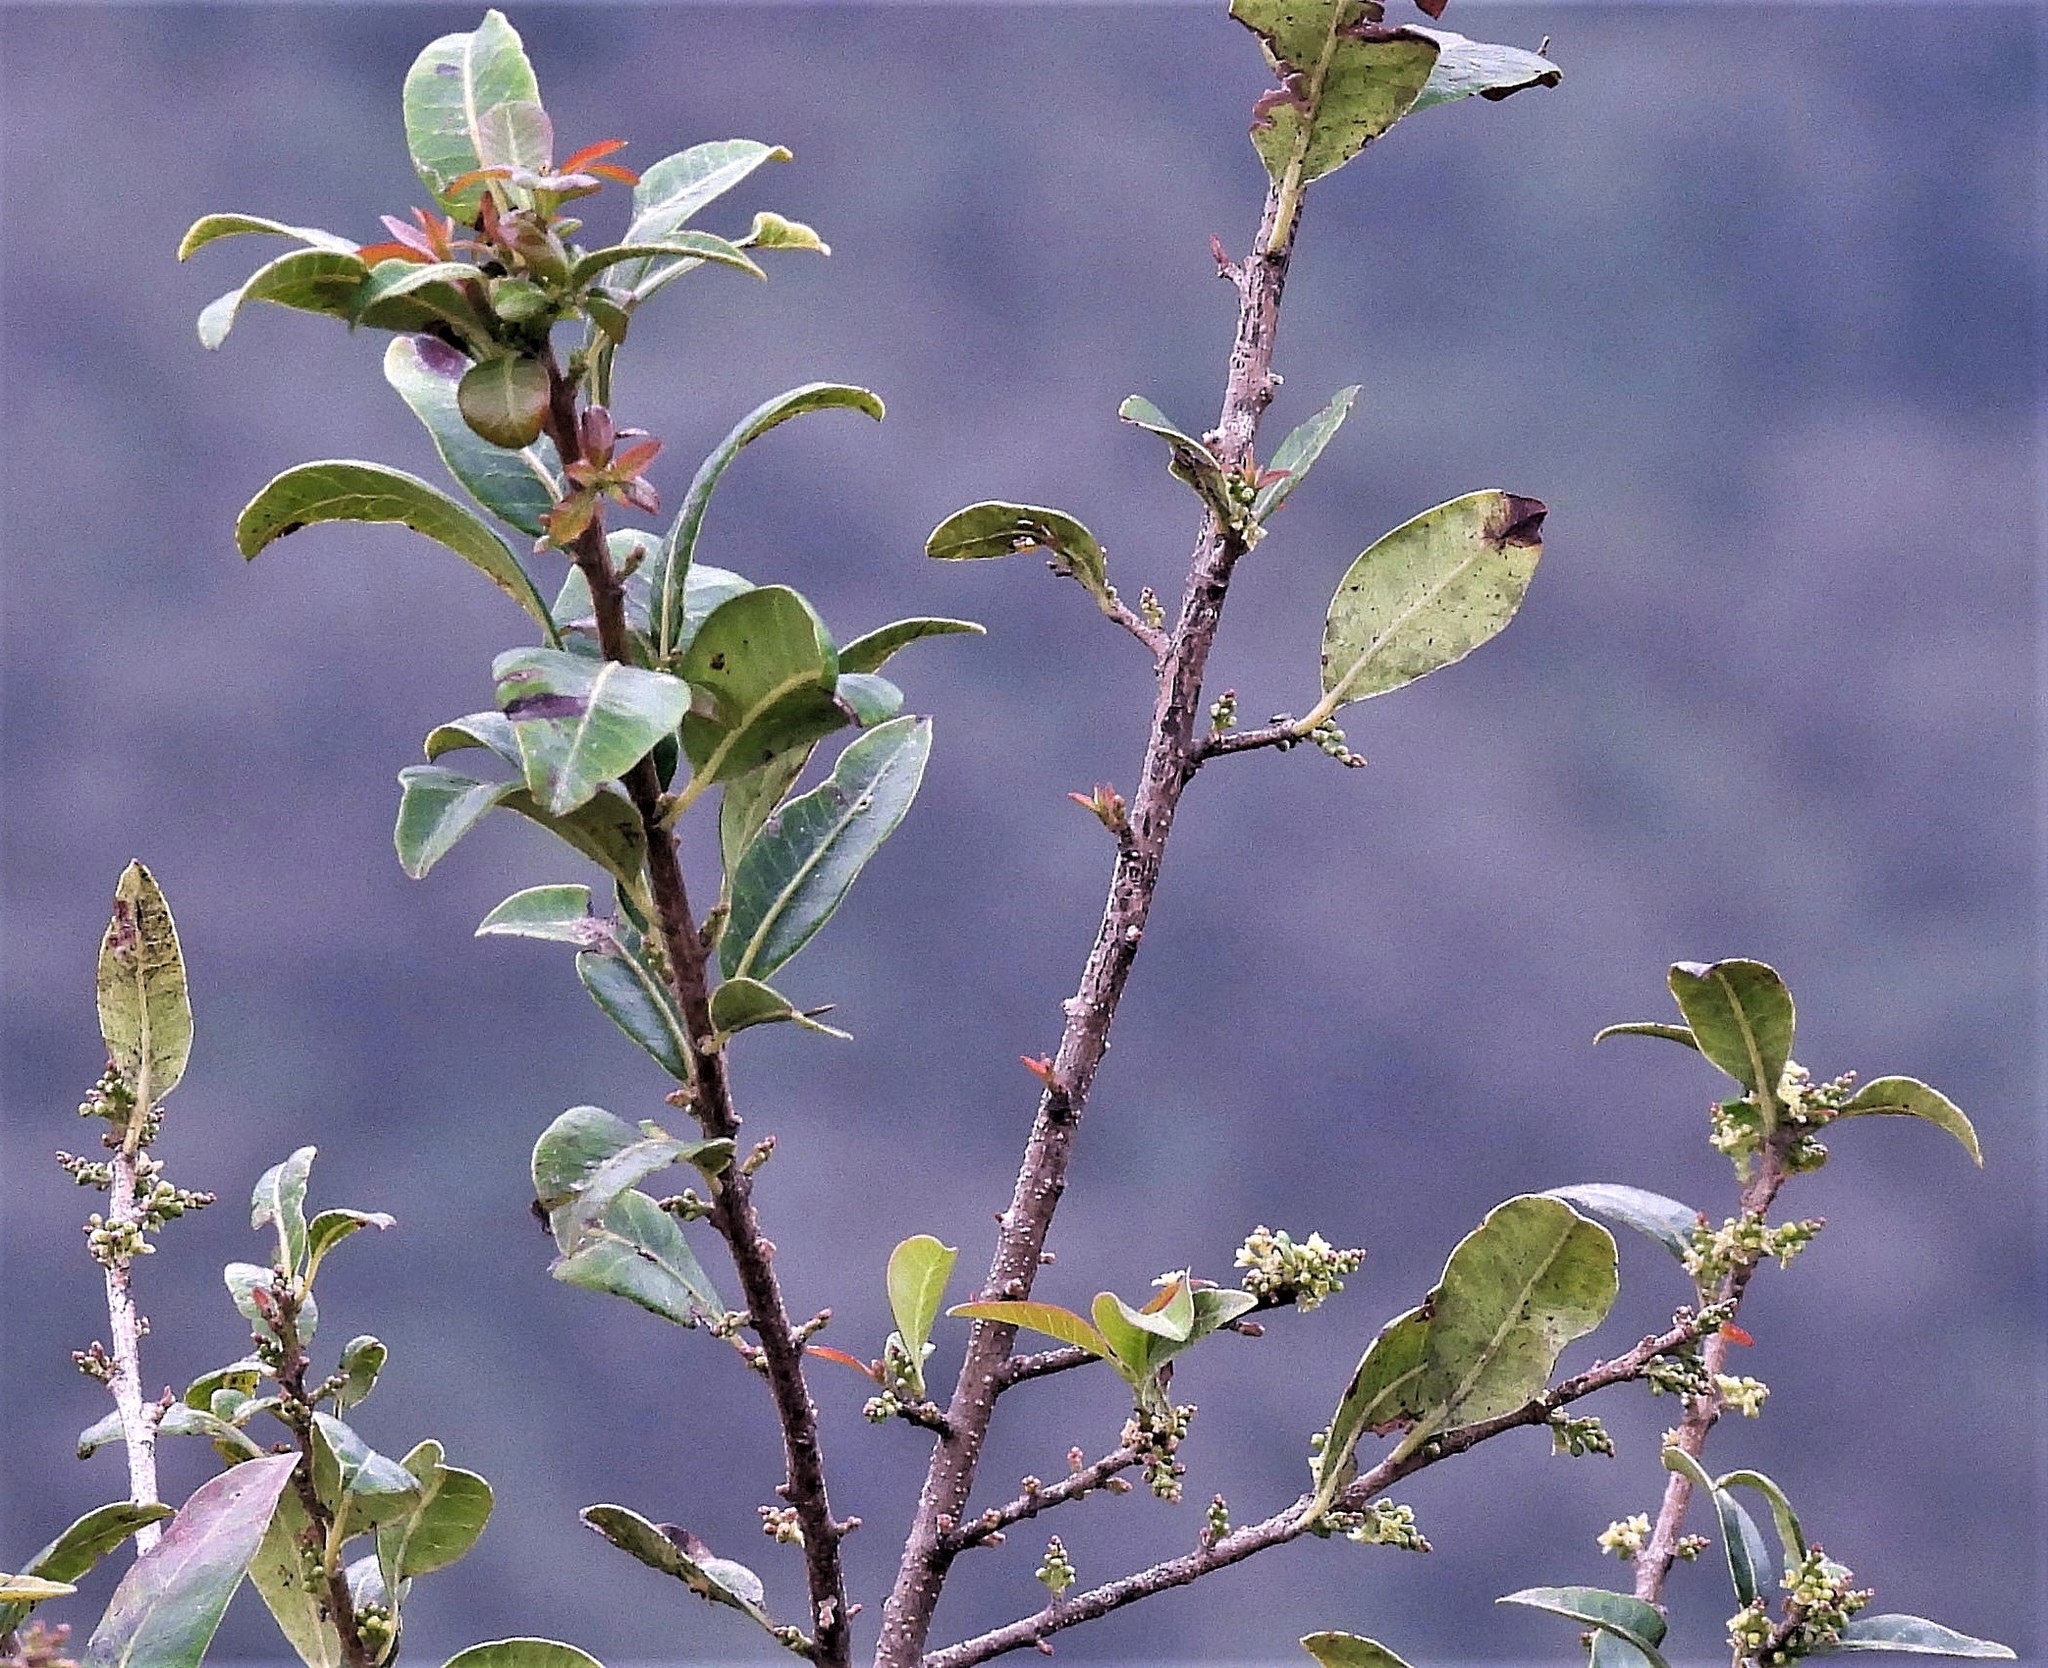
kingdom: Plantae
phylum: Tracheophyta
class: Magnoliopsida
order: Sapindales
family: Anacardiaceae
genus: Schinus
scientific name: Schinus gracilipes
